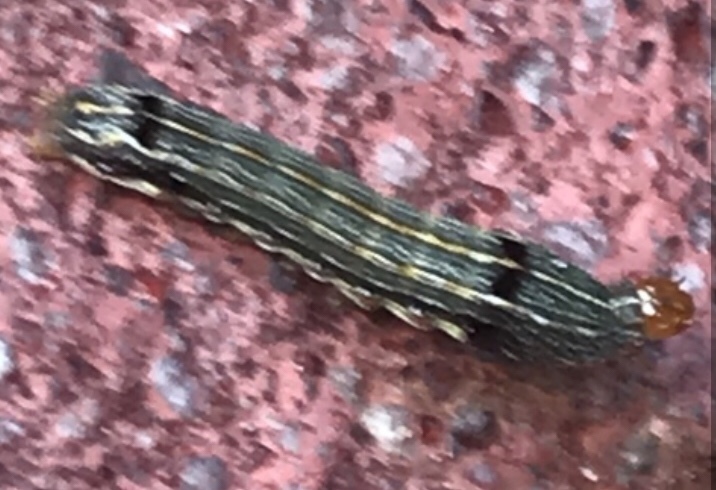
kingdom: Animalia
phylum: Arthropoda
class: Insecta
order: Lepidoptera
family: Noctuidae
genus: Spodoptera
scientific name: Spodoptera
